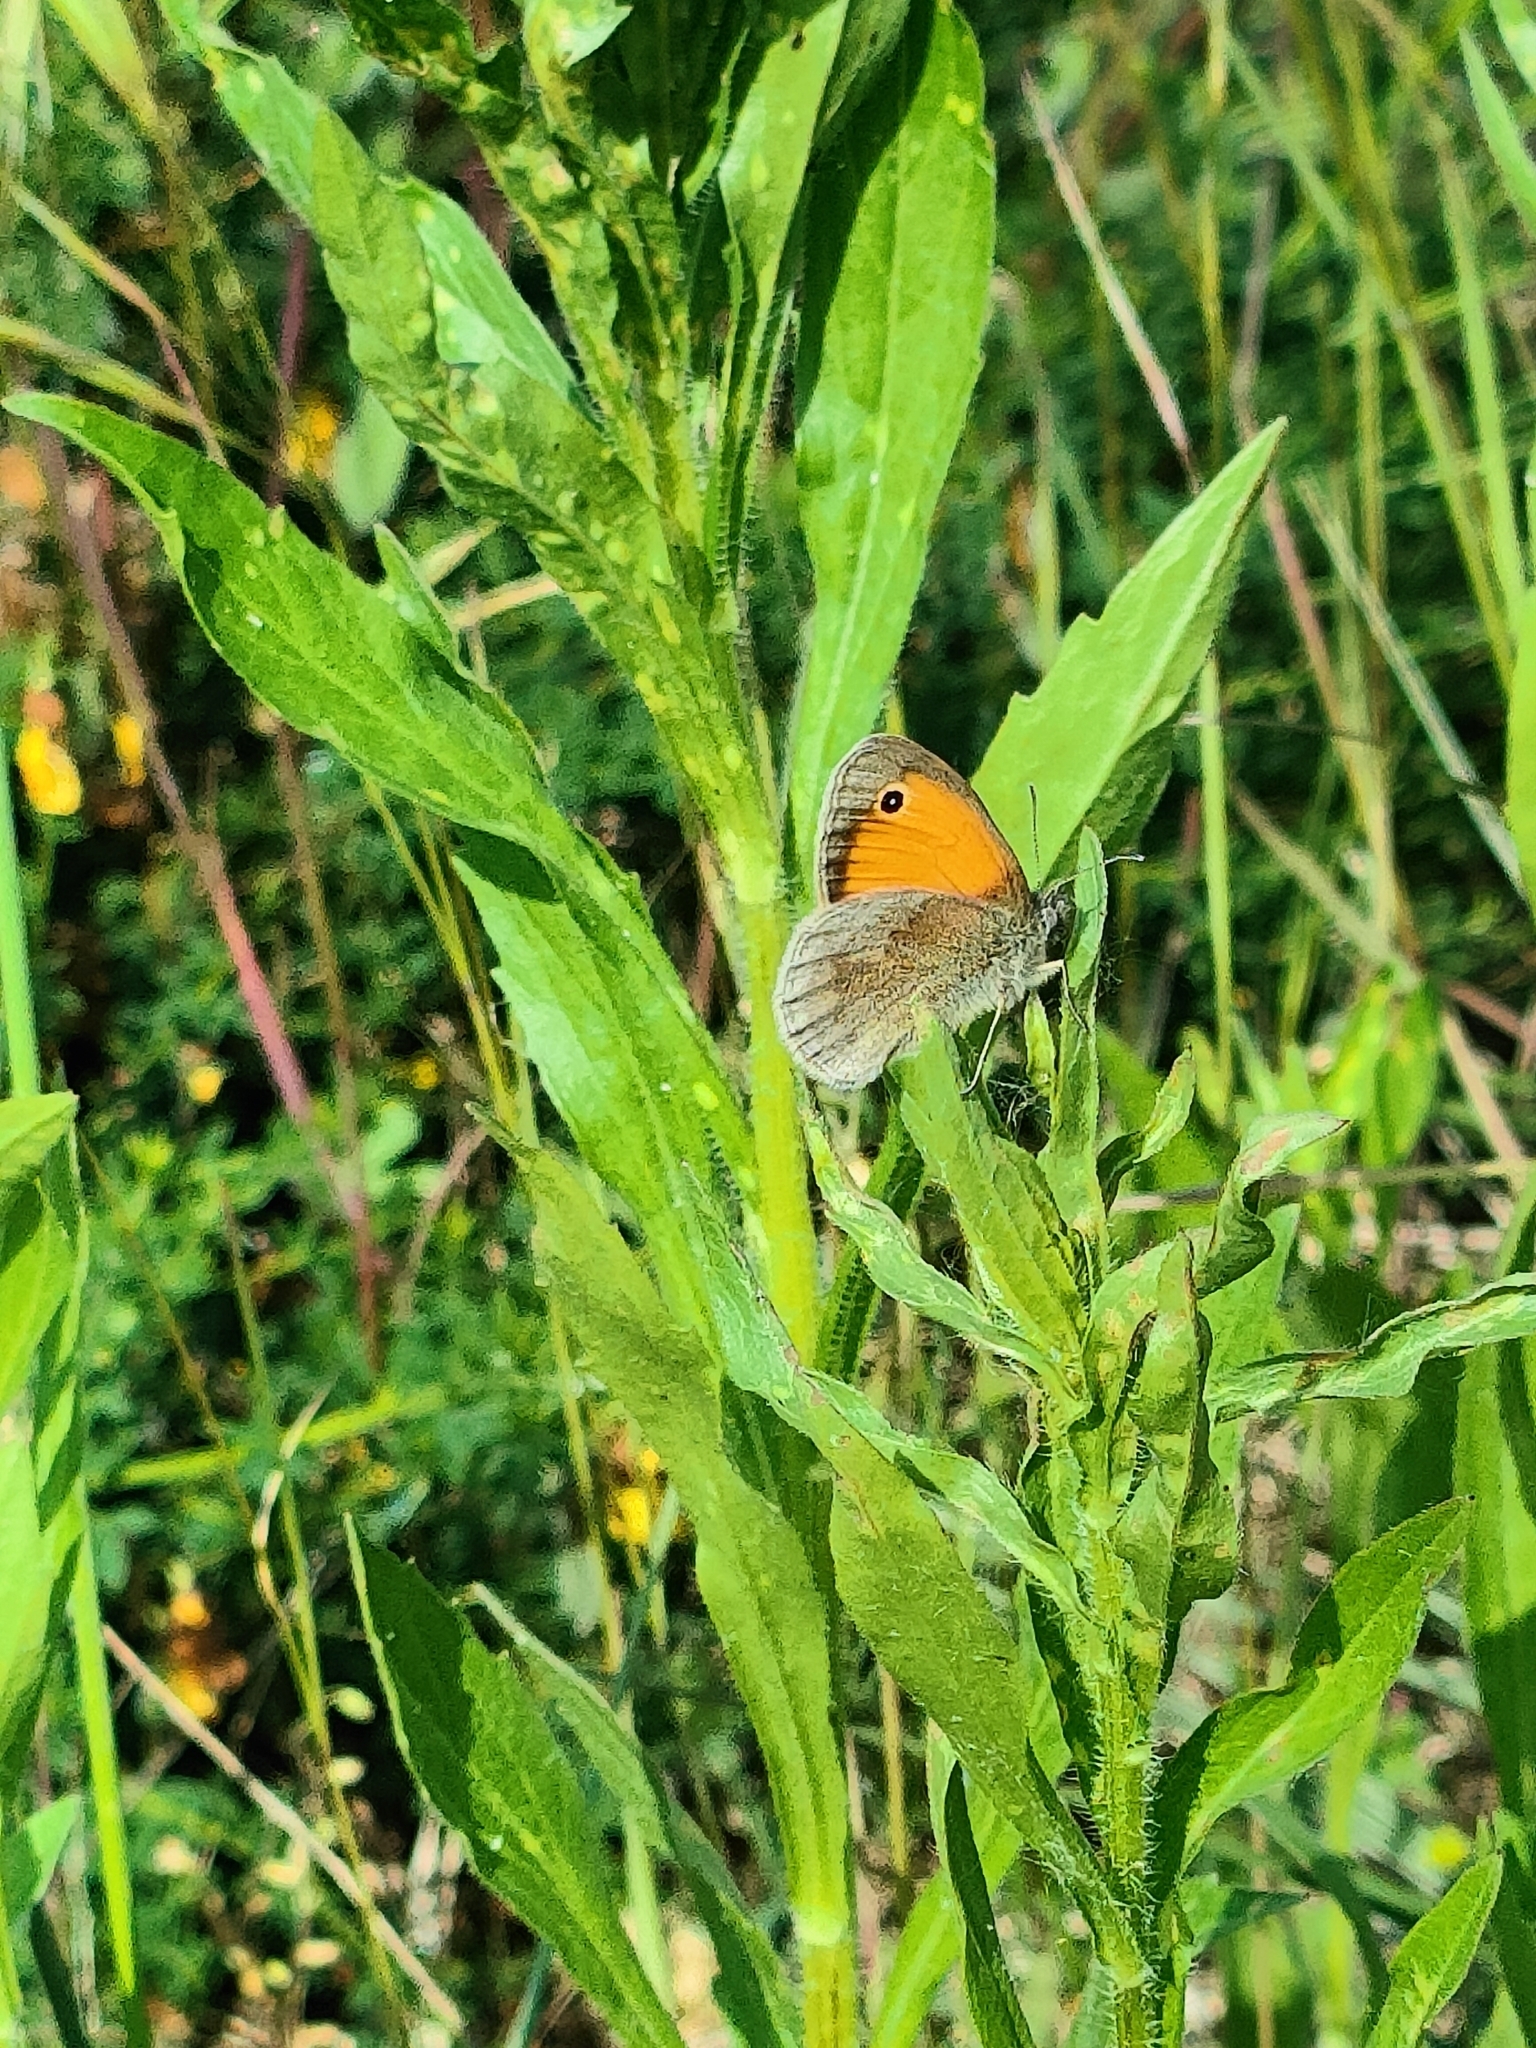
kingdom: Animalia
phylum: Arthropoda
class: Insecta
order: Lepidoptera
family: Nymphalidae
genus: Coenonympha
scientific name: Coenonympha pamphilus
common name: Small heath
